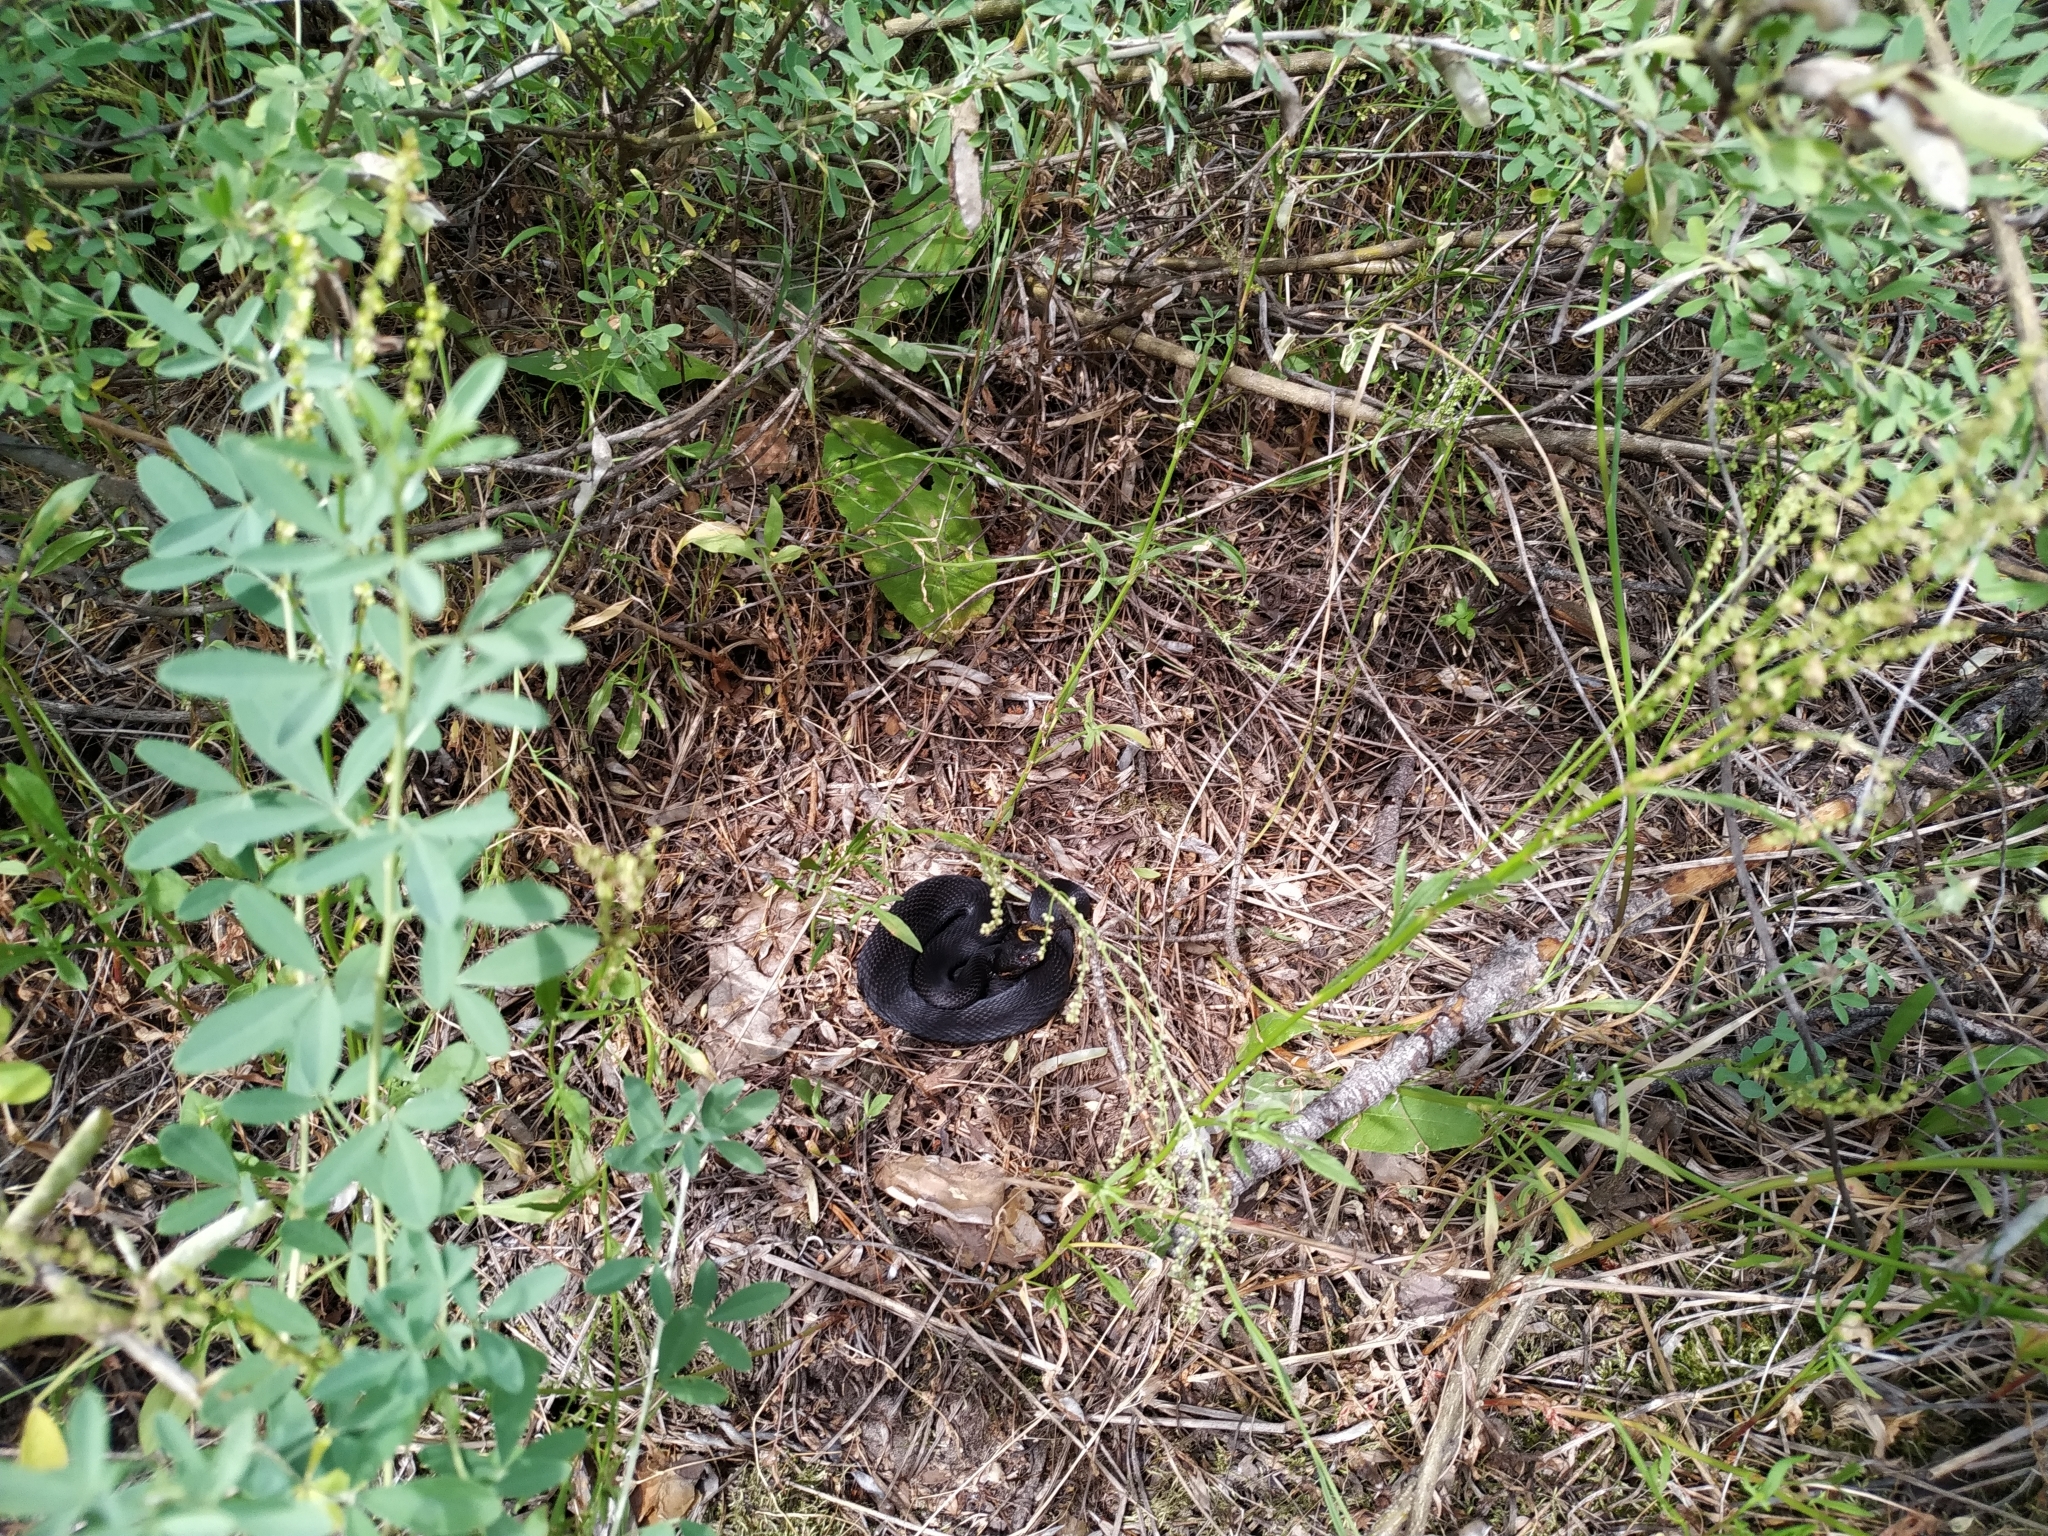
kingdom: Animalia
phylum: Chordata
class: Squamata
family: Viperidae
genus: Vipera
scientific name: Vipera nikolskii
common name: Adder
